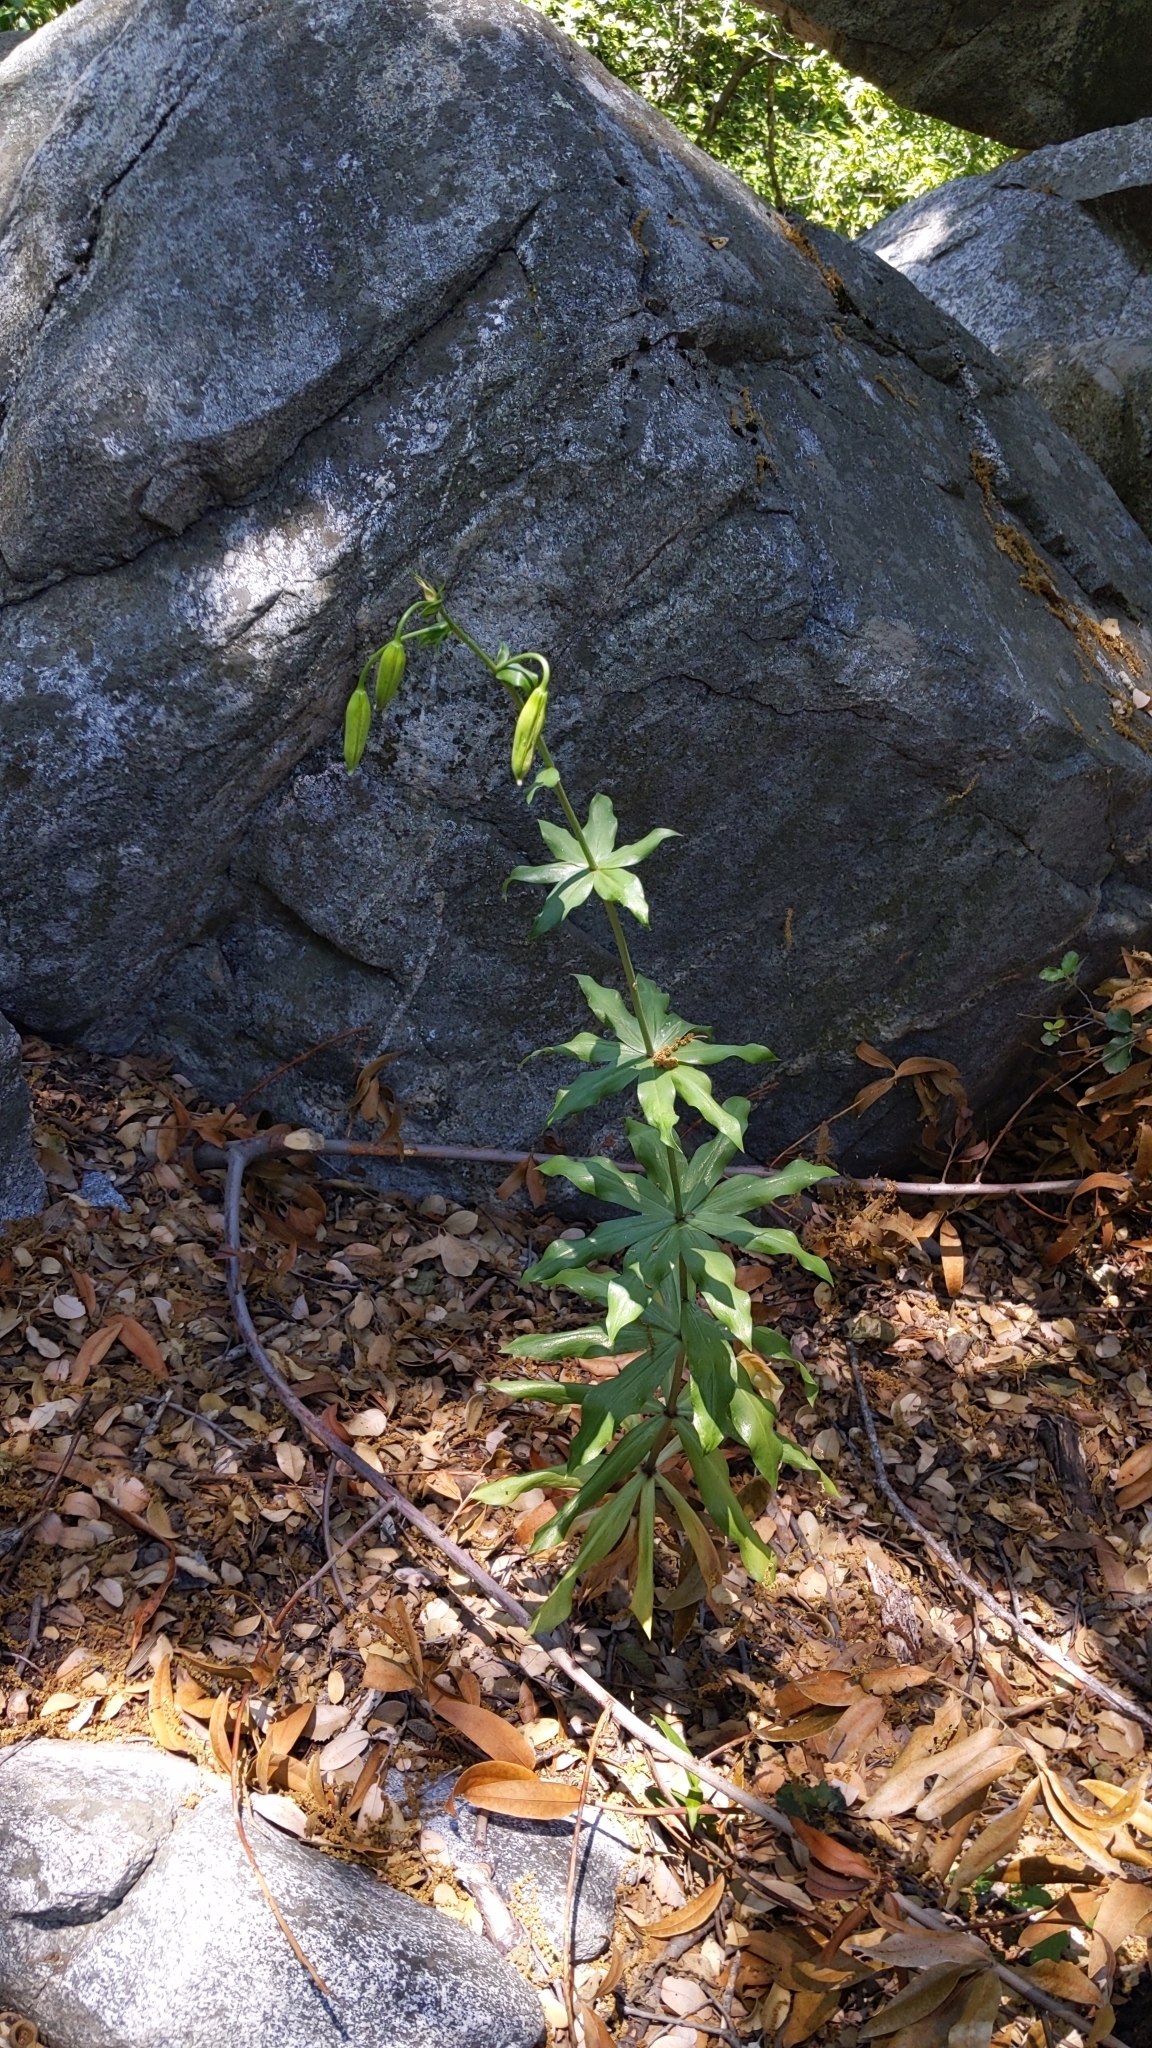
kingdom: Plantae
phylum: Tracheophyta
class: Liliopsida
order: Liliales
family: Liliaceae
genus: Lilium
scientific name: Lilium humboldtii
